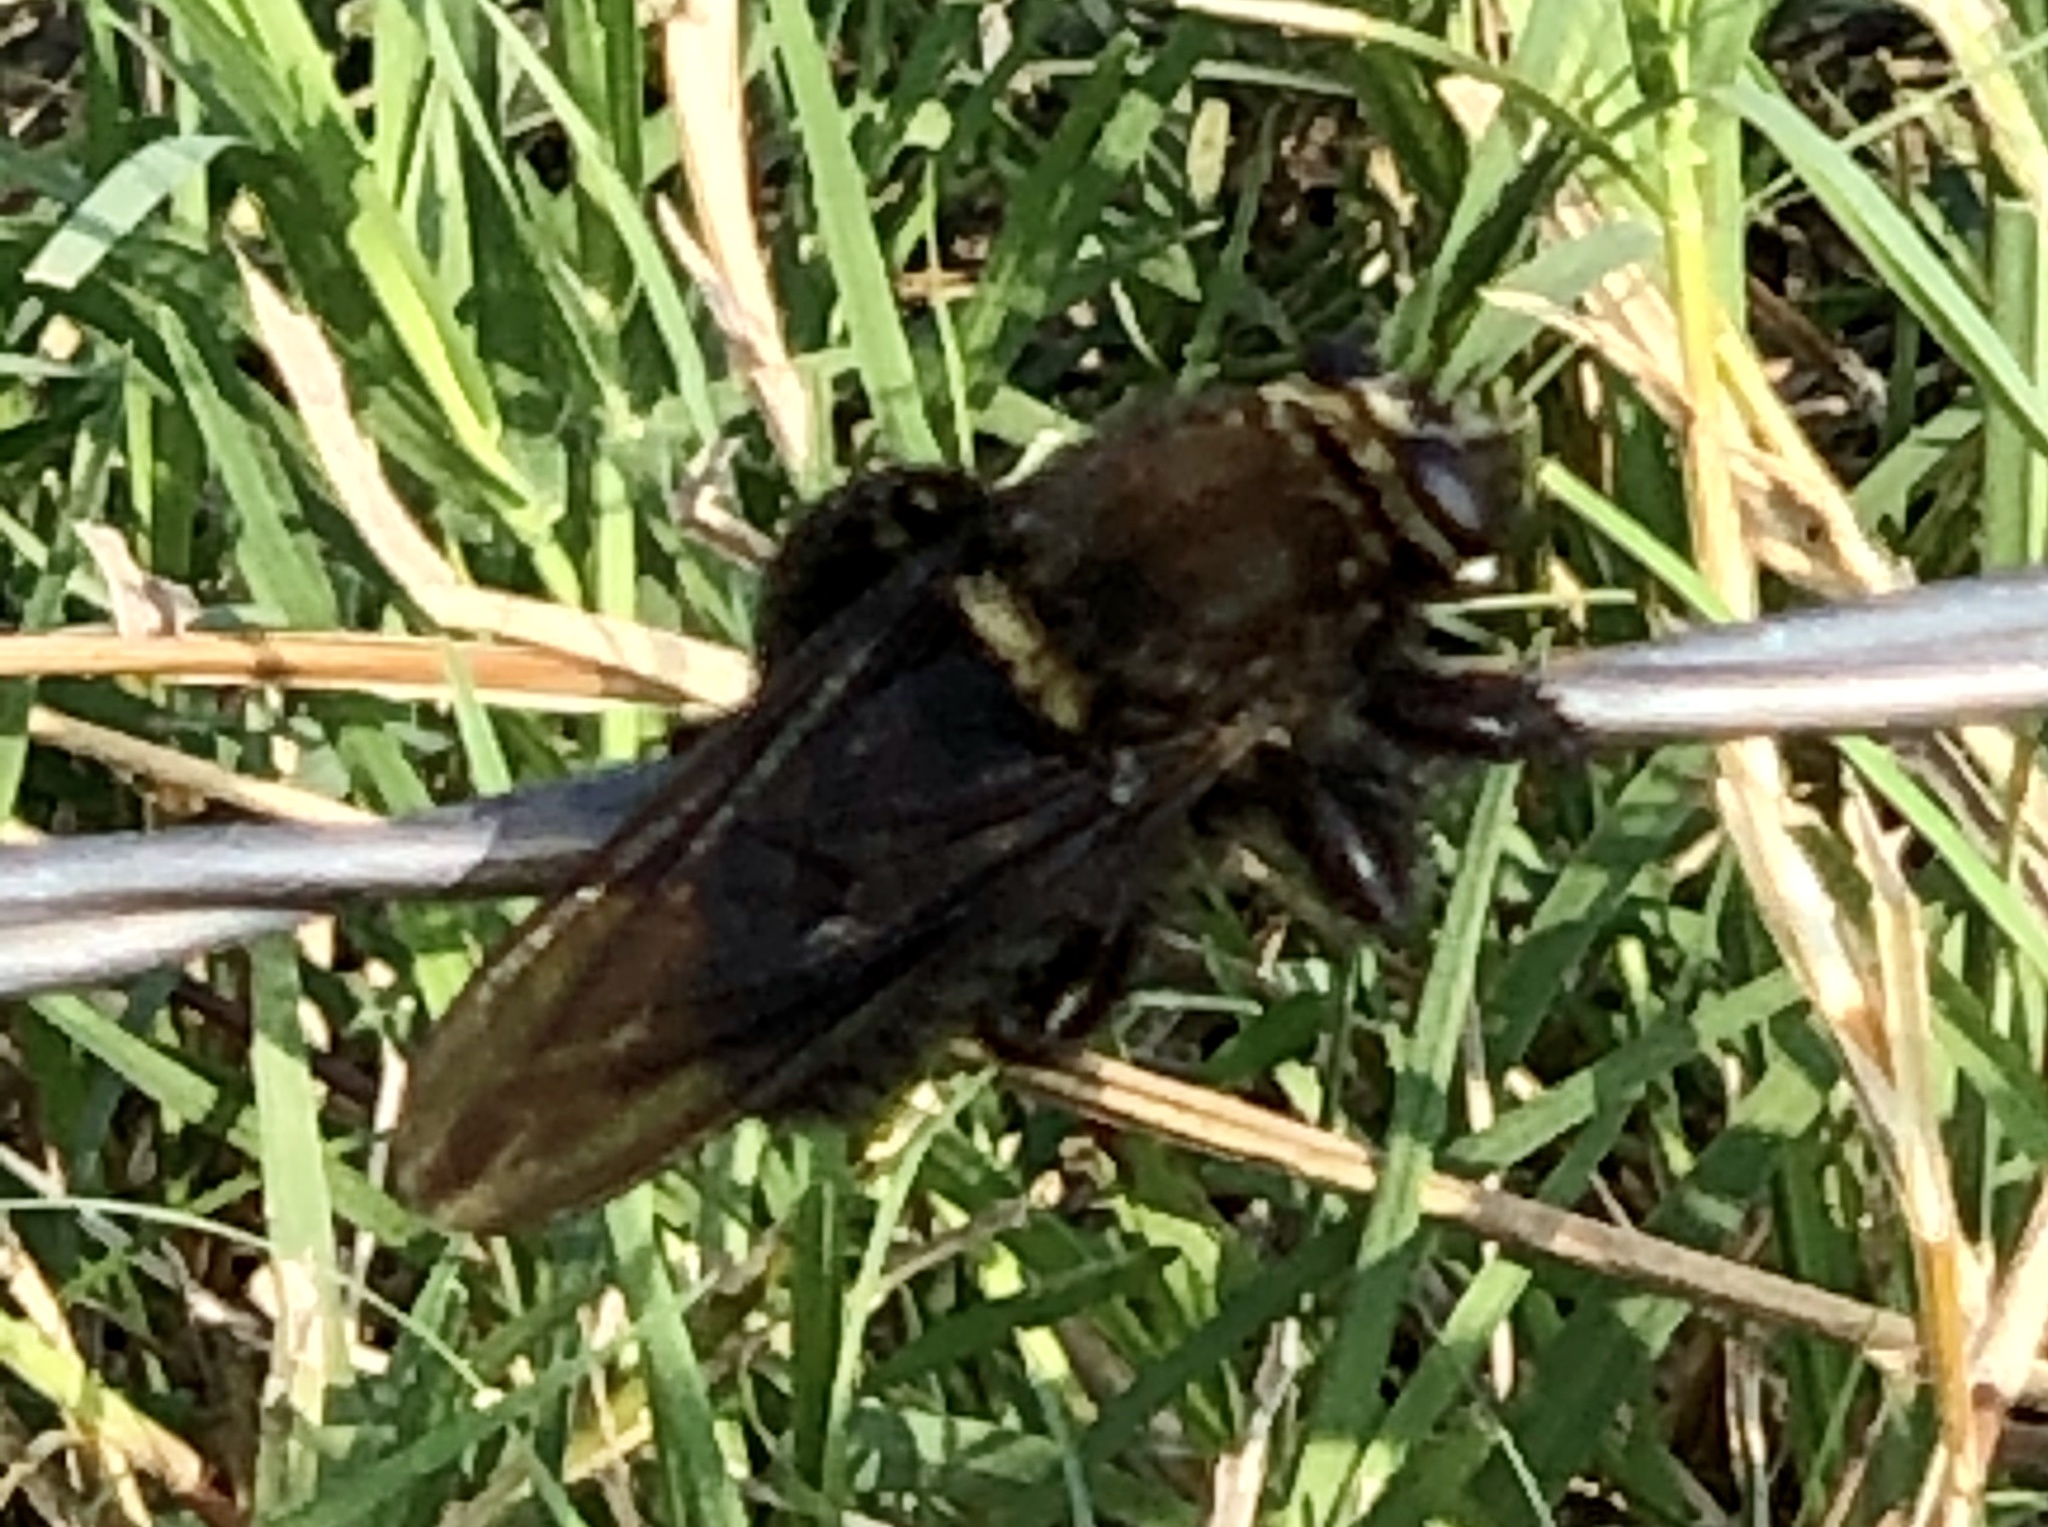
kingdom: Animalia
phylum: Arthropoda
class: Insecta
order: Diptera
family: Asilidae
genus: Mallophora
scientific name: Mallophora leschenaultii
